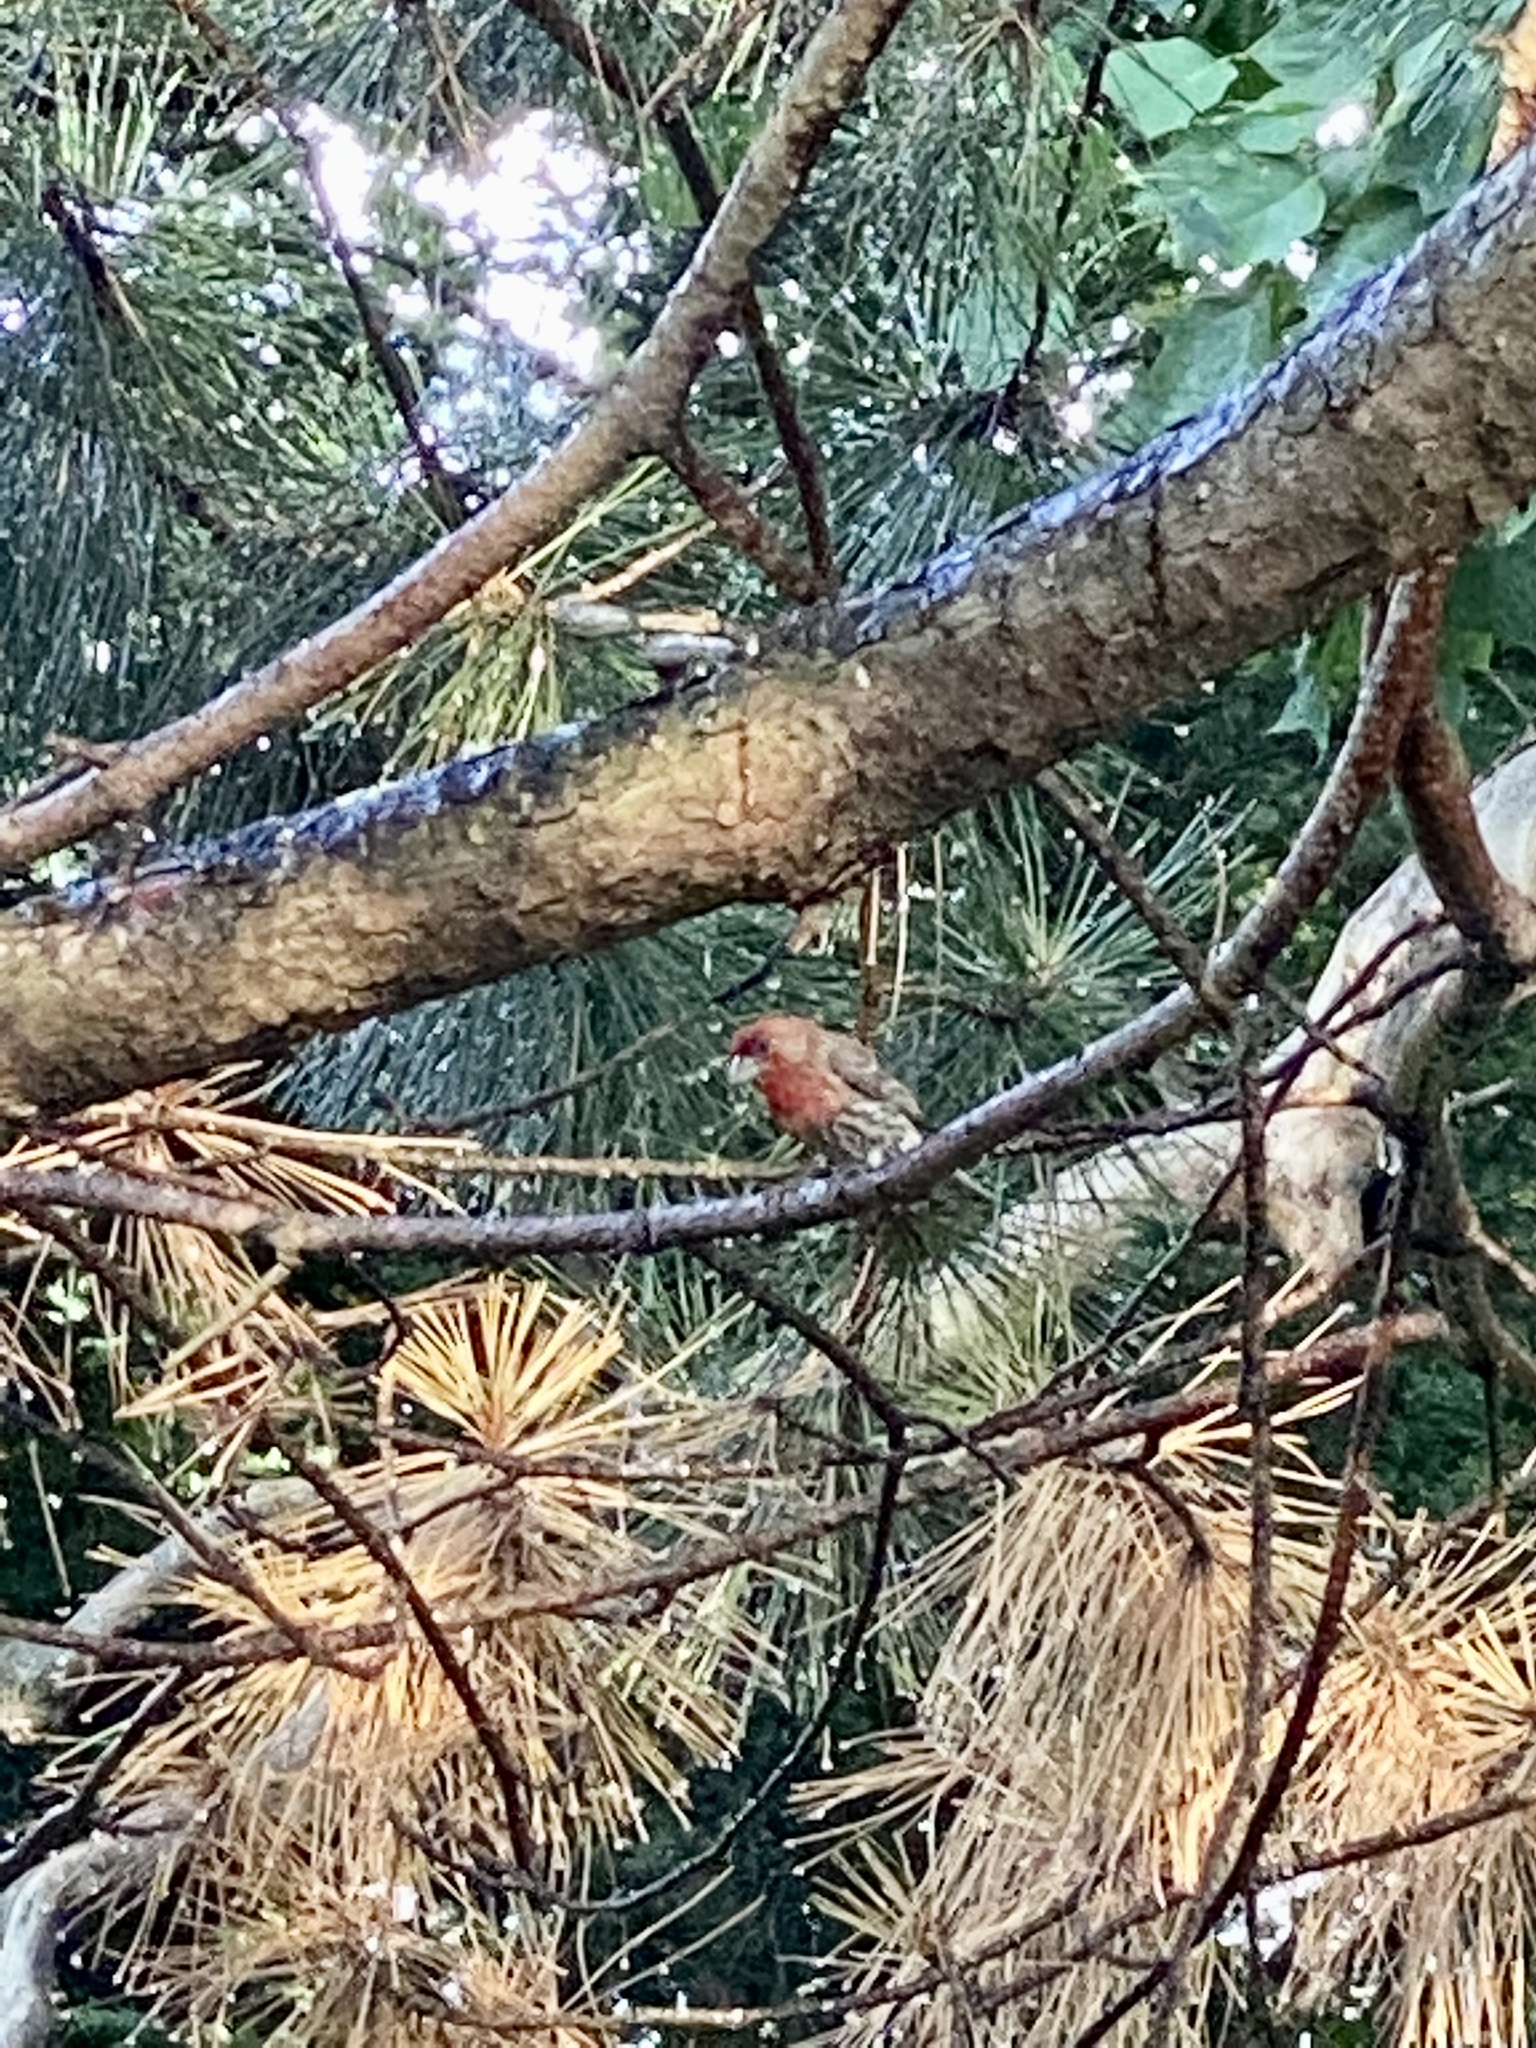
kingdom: Animalia
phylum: Chordata
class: Aves
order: Passeriformes
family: Fringillidae
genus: Haemorhous
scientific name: Haemorhous mexicanus
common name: House finch
